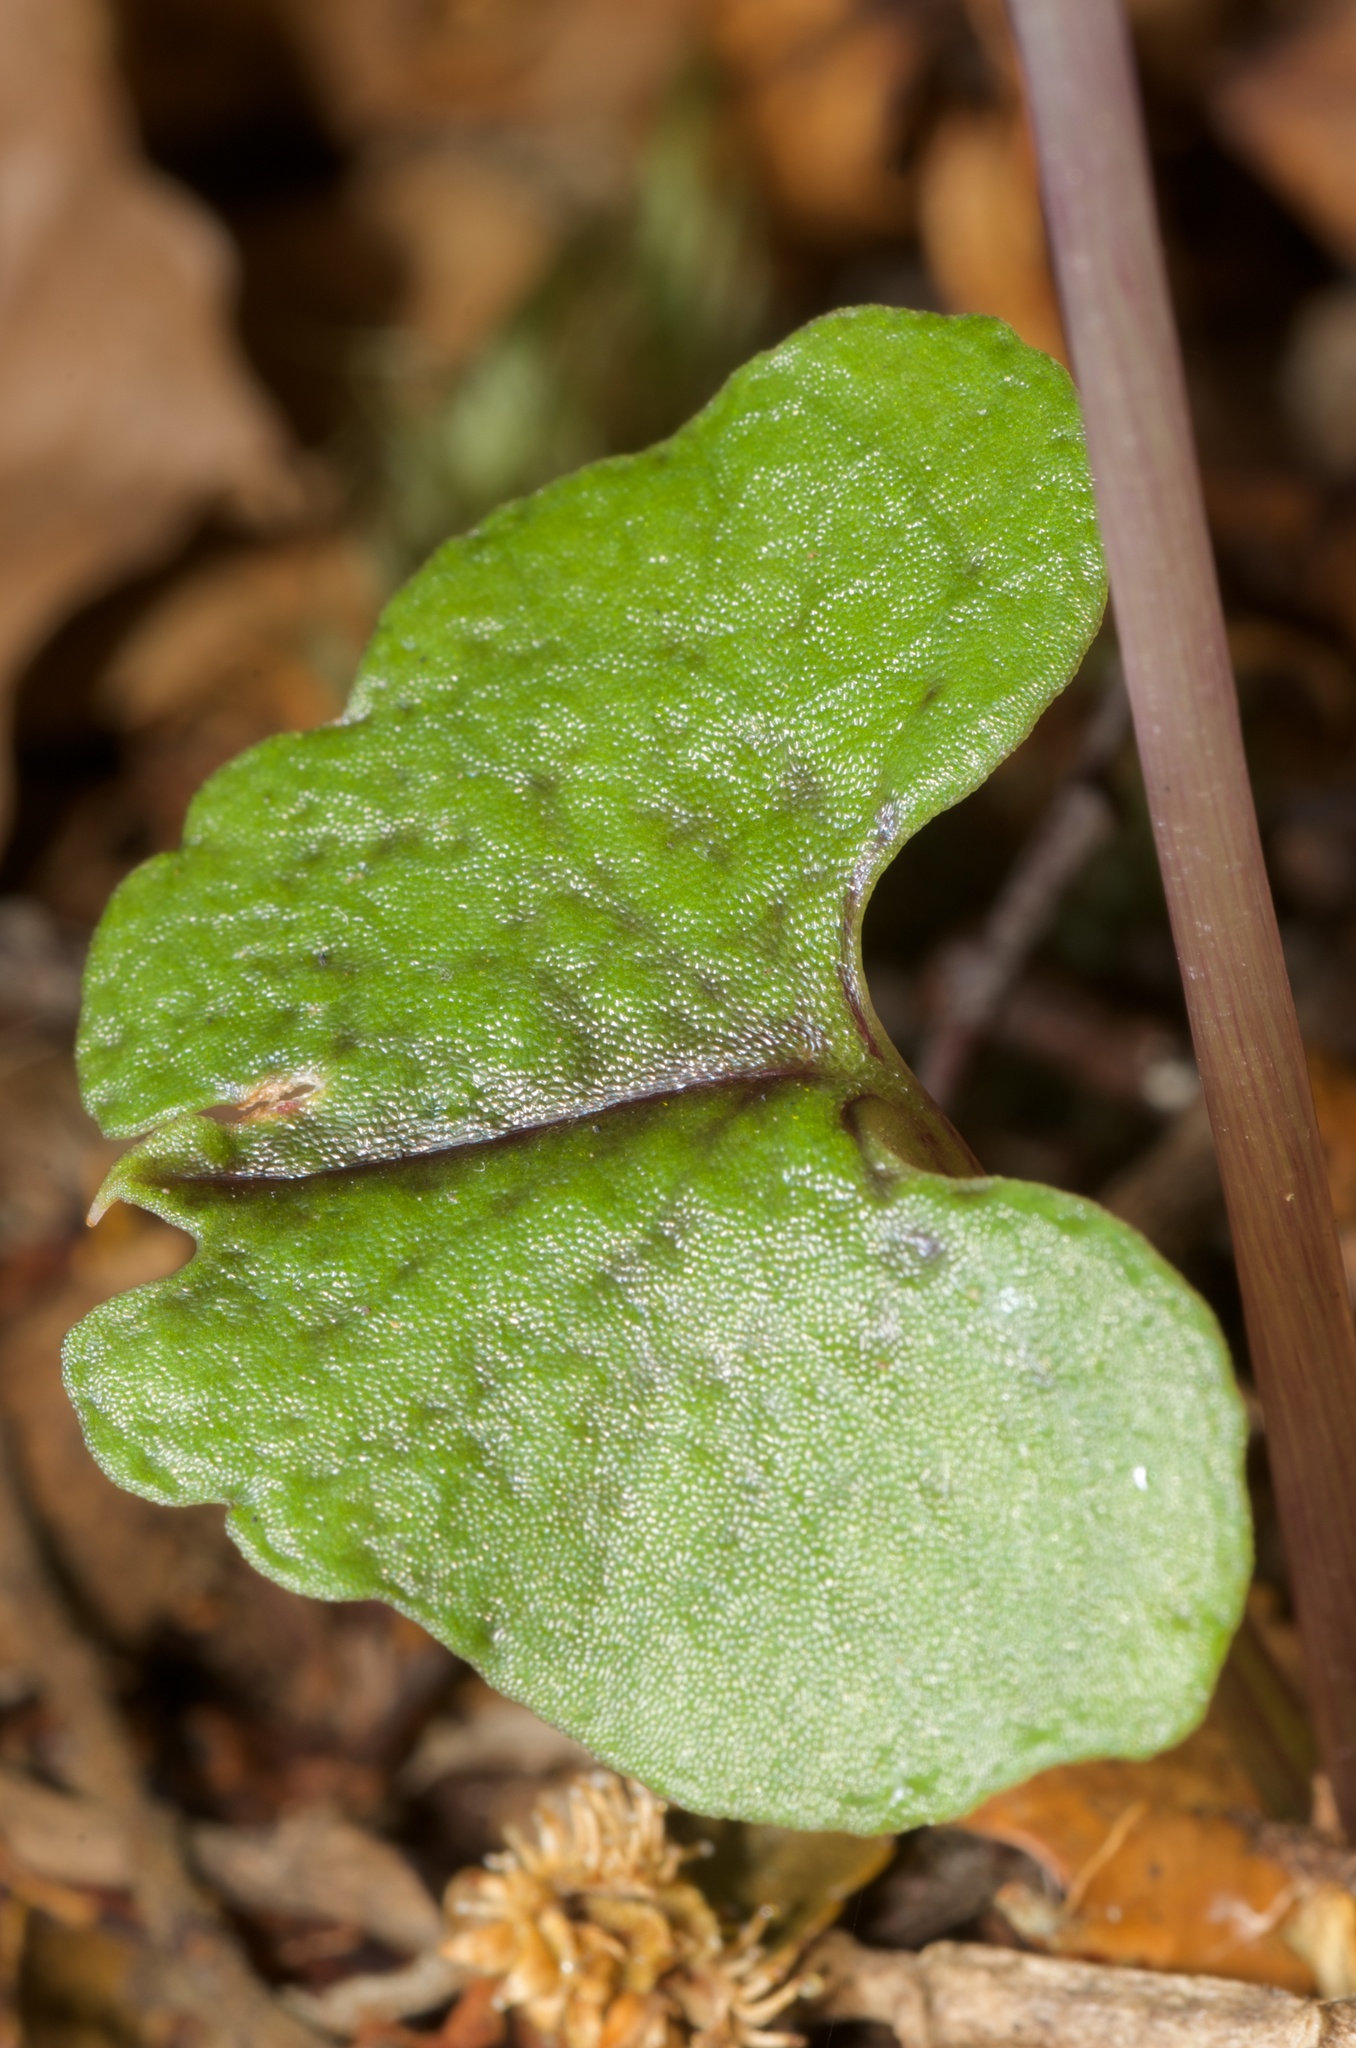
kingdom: Plantae
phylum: Tracheophyta
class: Liliopsida
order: Asparagales
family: Orchidaceae
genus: Corybas
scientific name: Corybas trilobus
